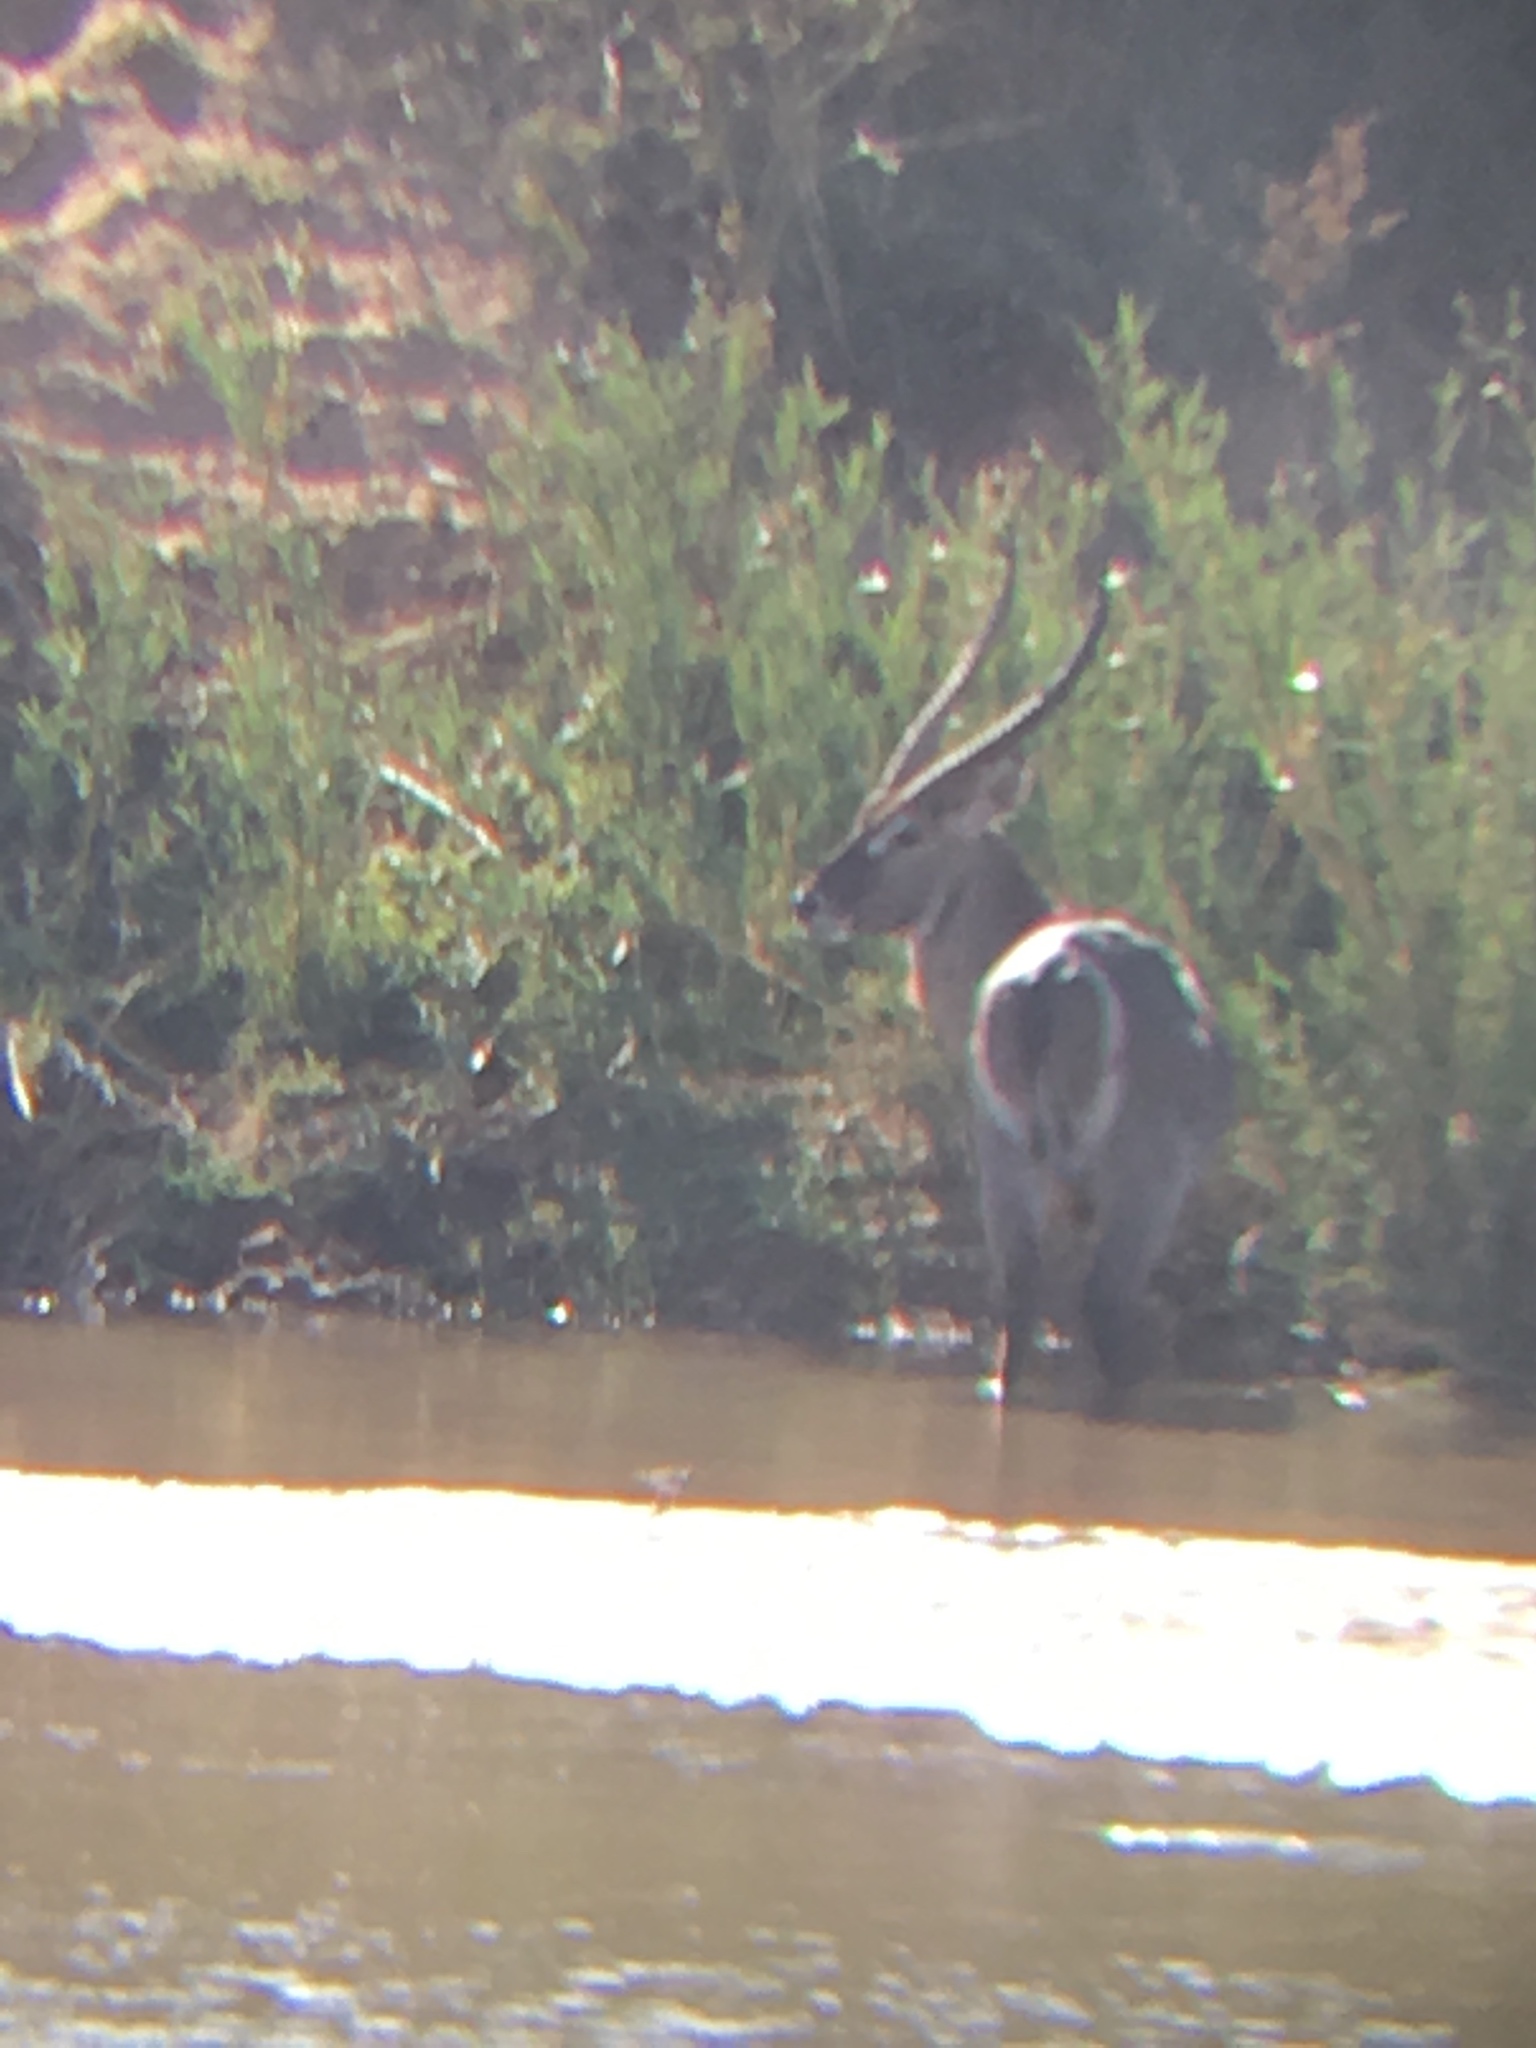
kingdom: Animalia
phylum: Chordata
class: Mammalia
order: Artiodactyla
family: Bovidae
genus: Kobus
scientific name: Kobus ellipsiprymnus
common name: Waterbuck
